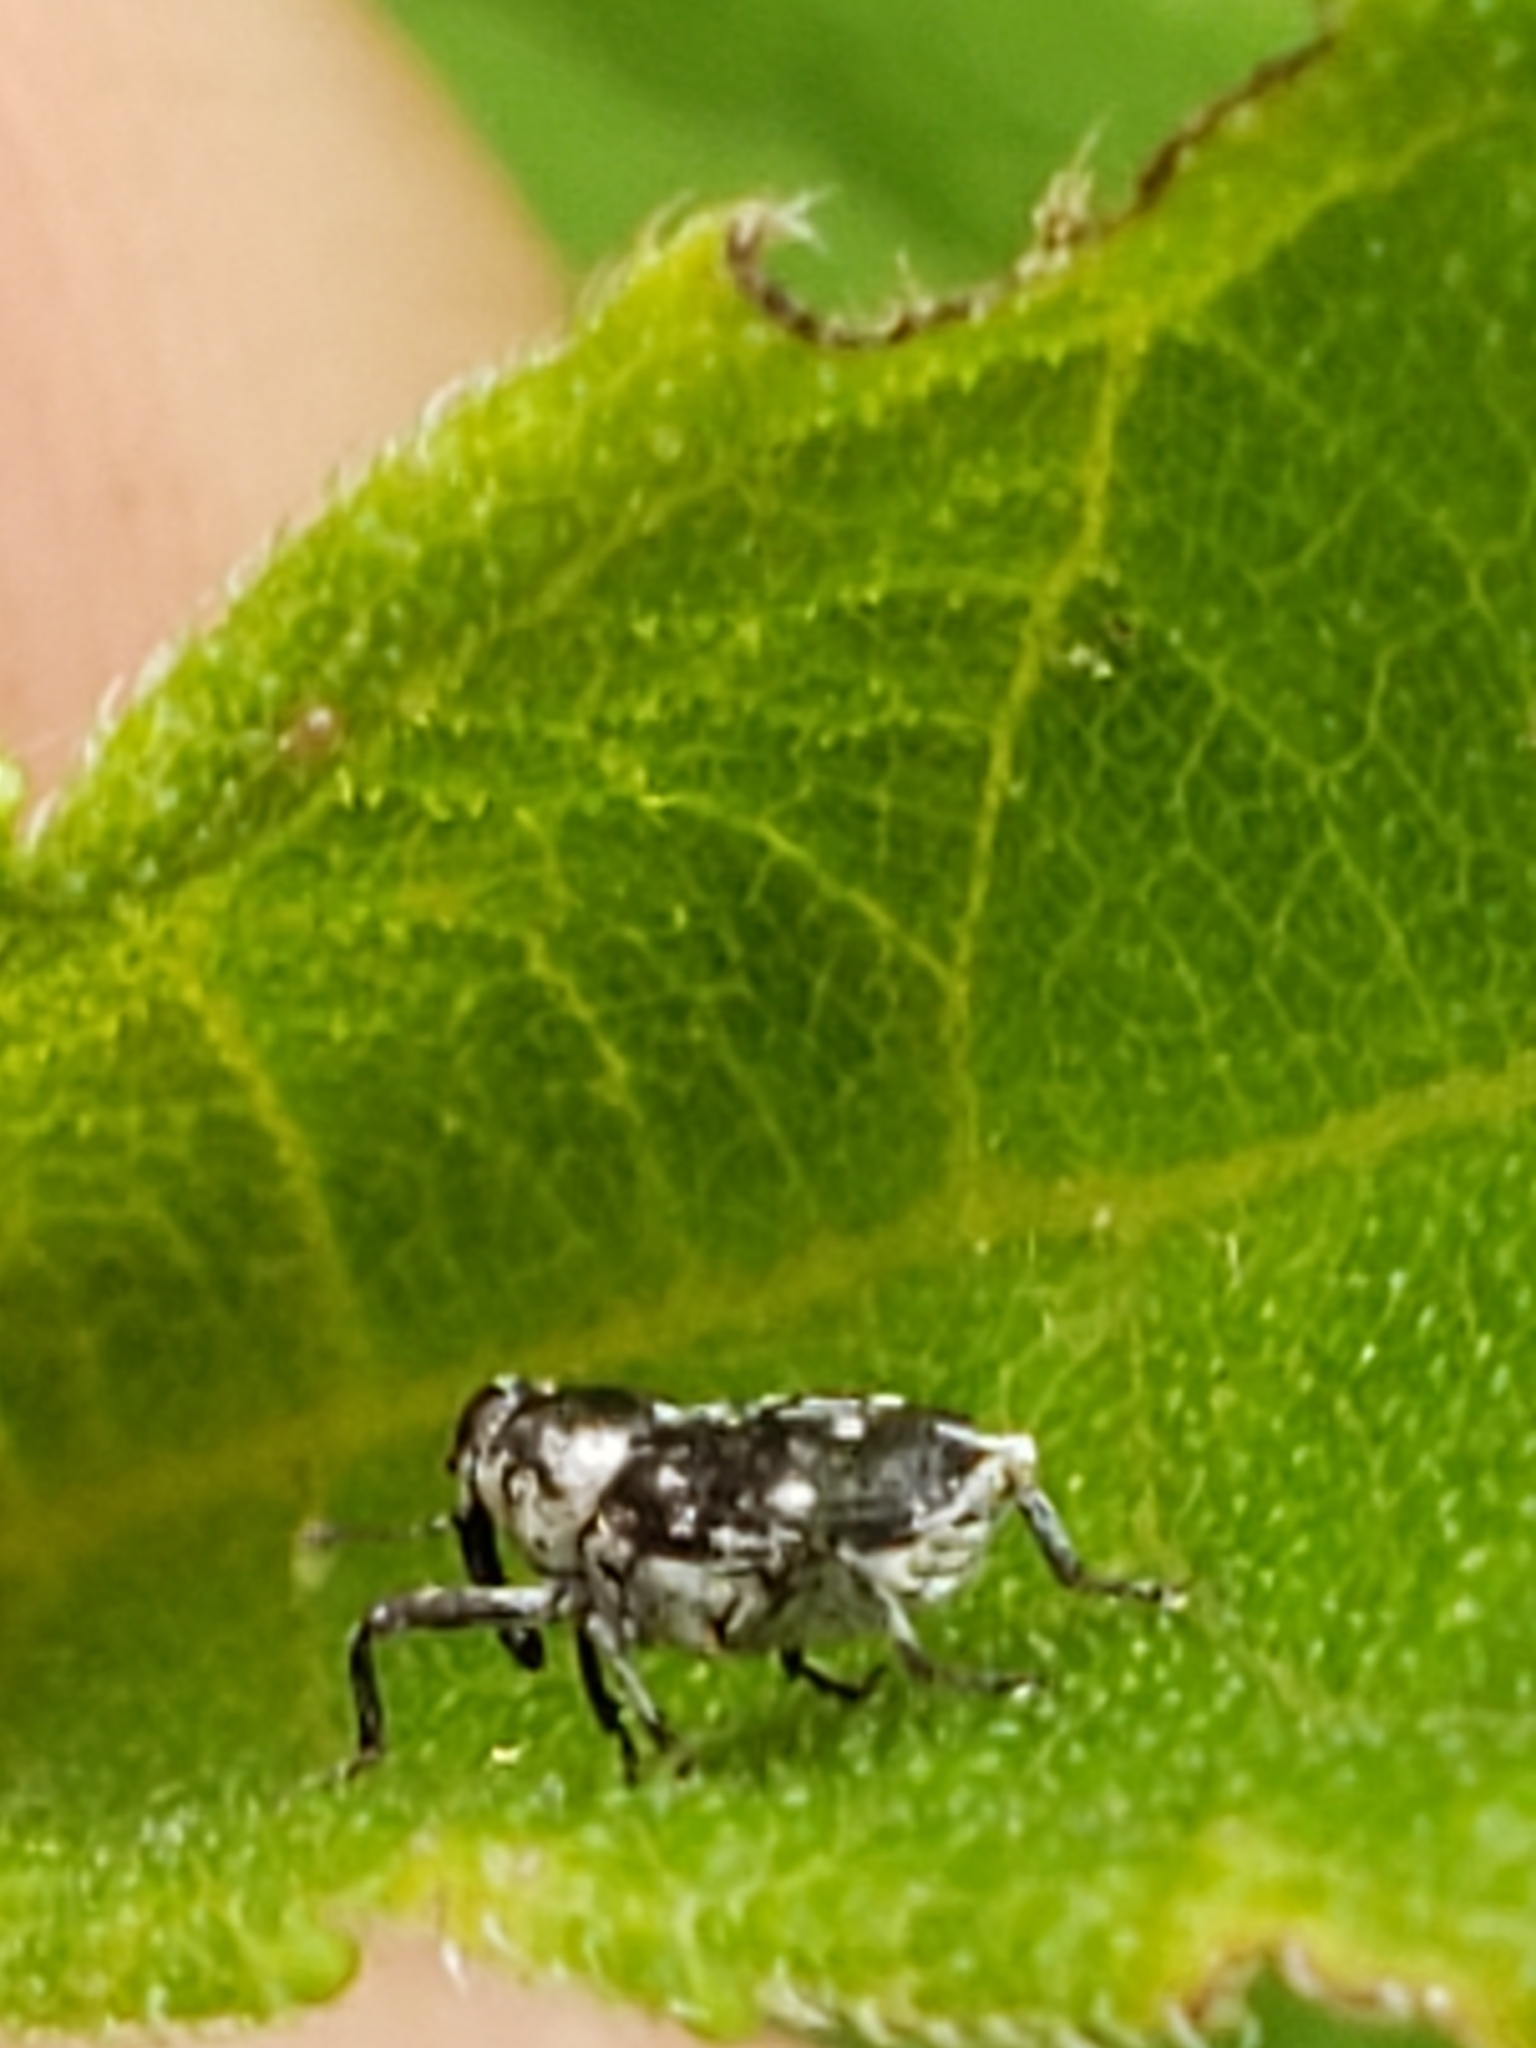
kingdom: Animalia
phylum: Arthropoda
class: Insecta
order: Coleoptera
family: Curculionidae
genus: Cylindrocopturus
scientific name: Cylindrocopturus quercus
